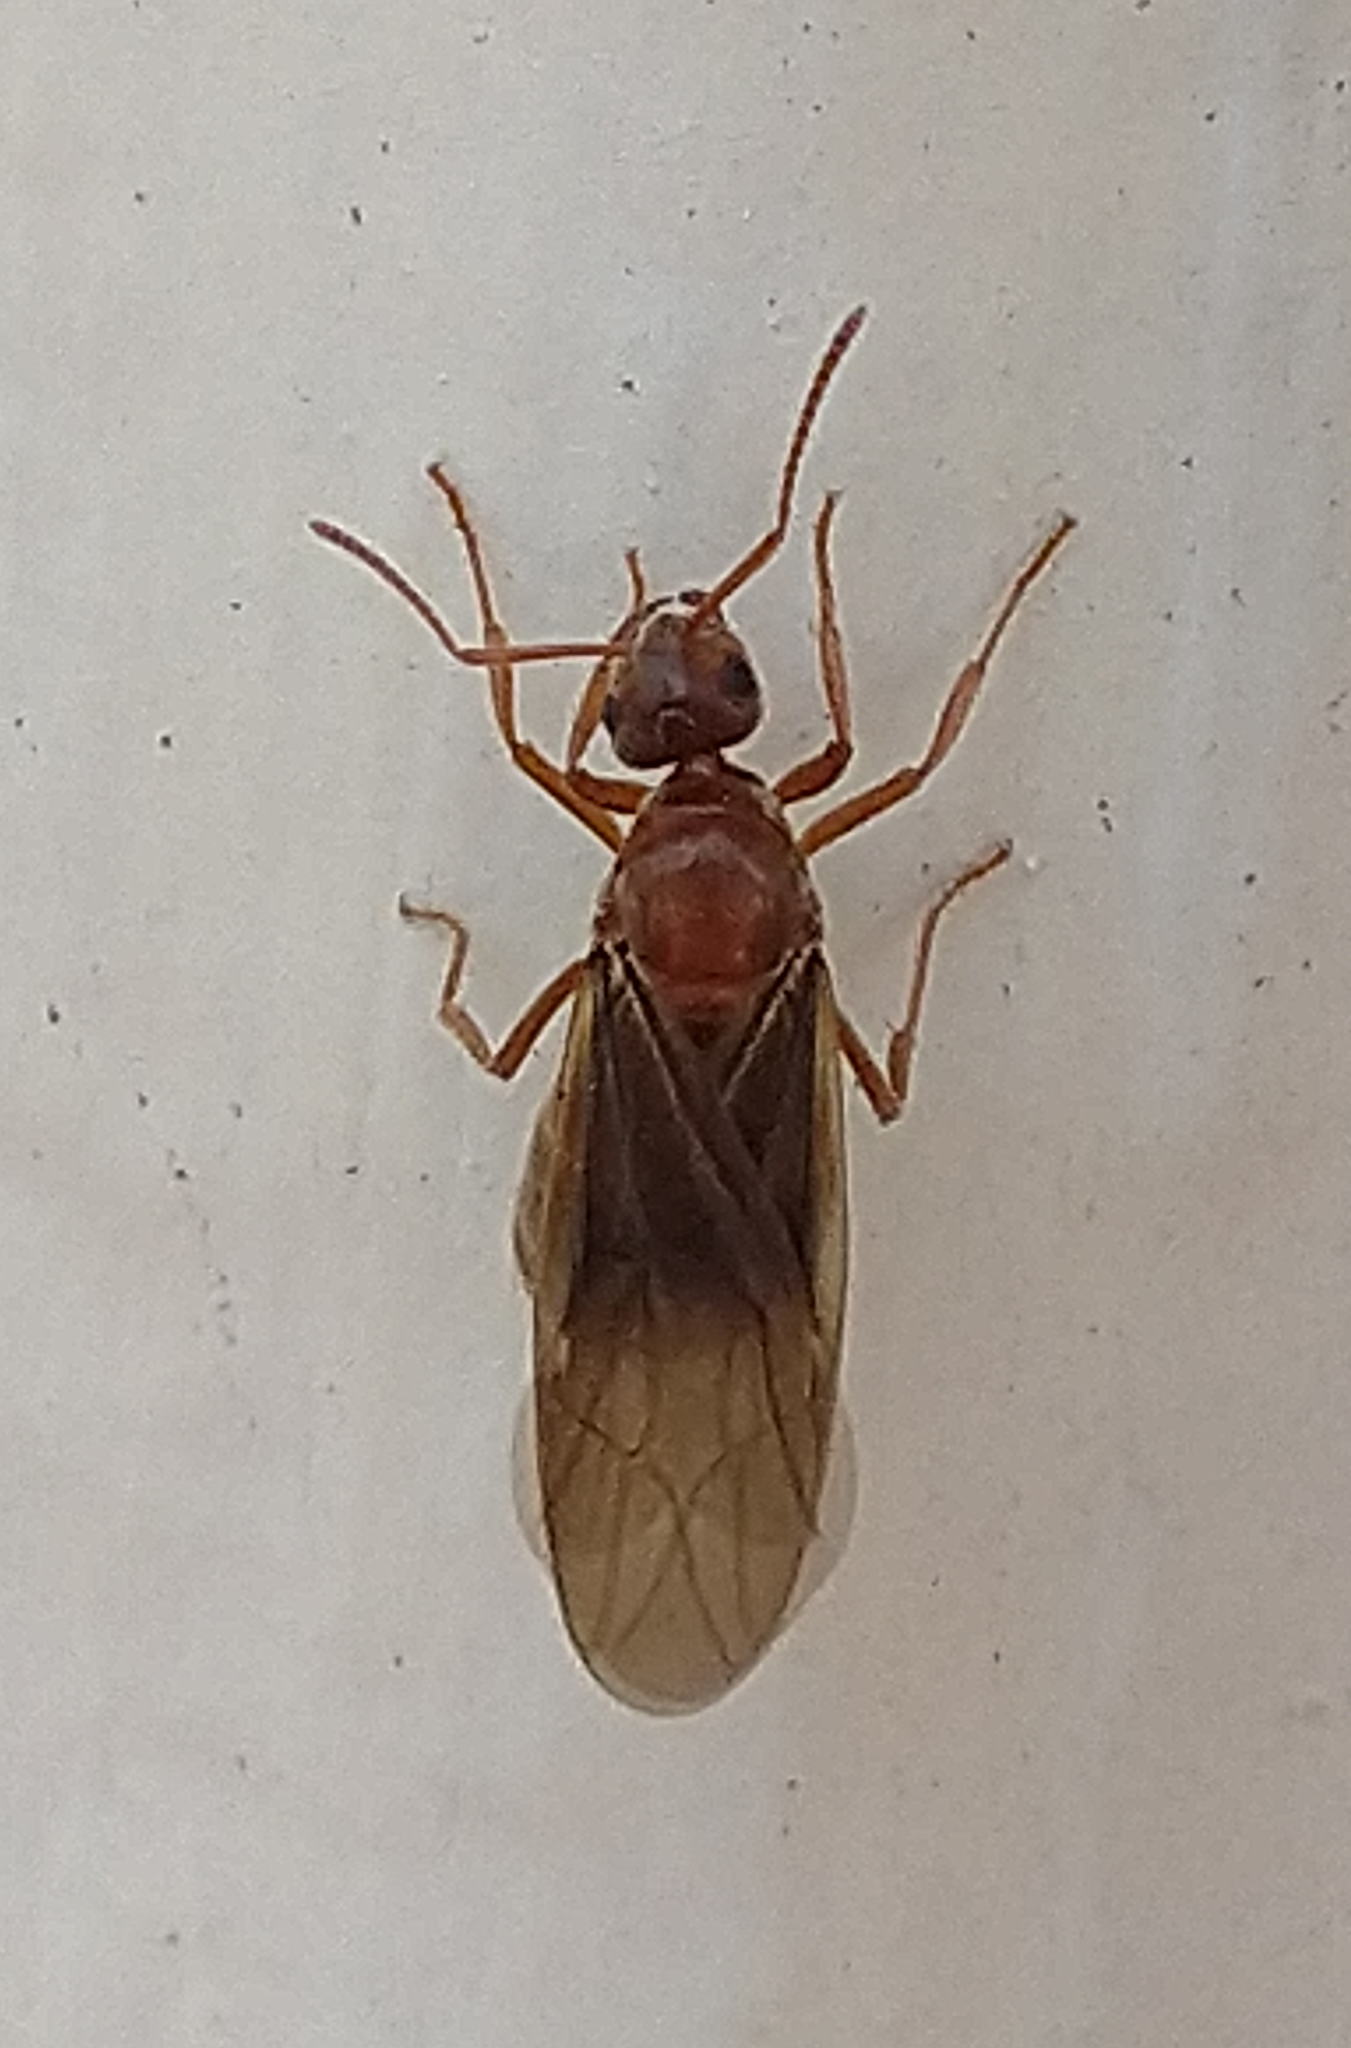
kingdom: Animalia
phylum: Arthropoda
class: Insecta
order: Hymenoptera
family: Formicidae
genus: Prenolepis
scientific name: Prenolepis imparis
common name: Small honey ant
